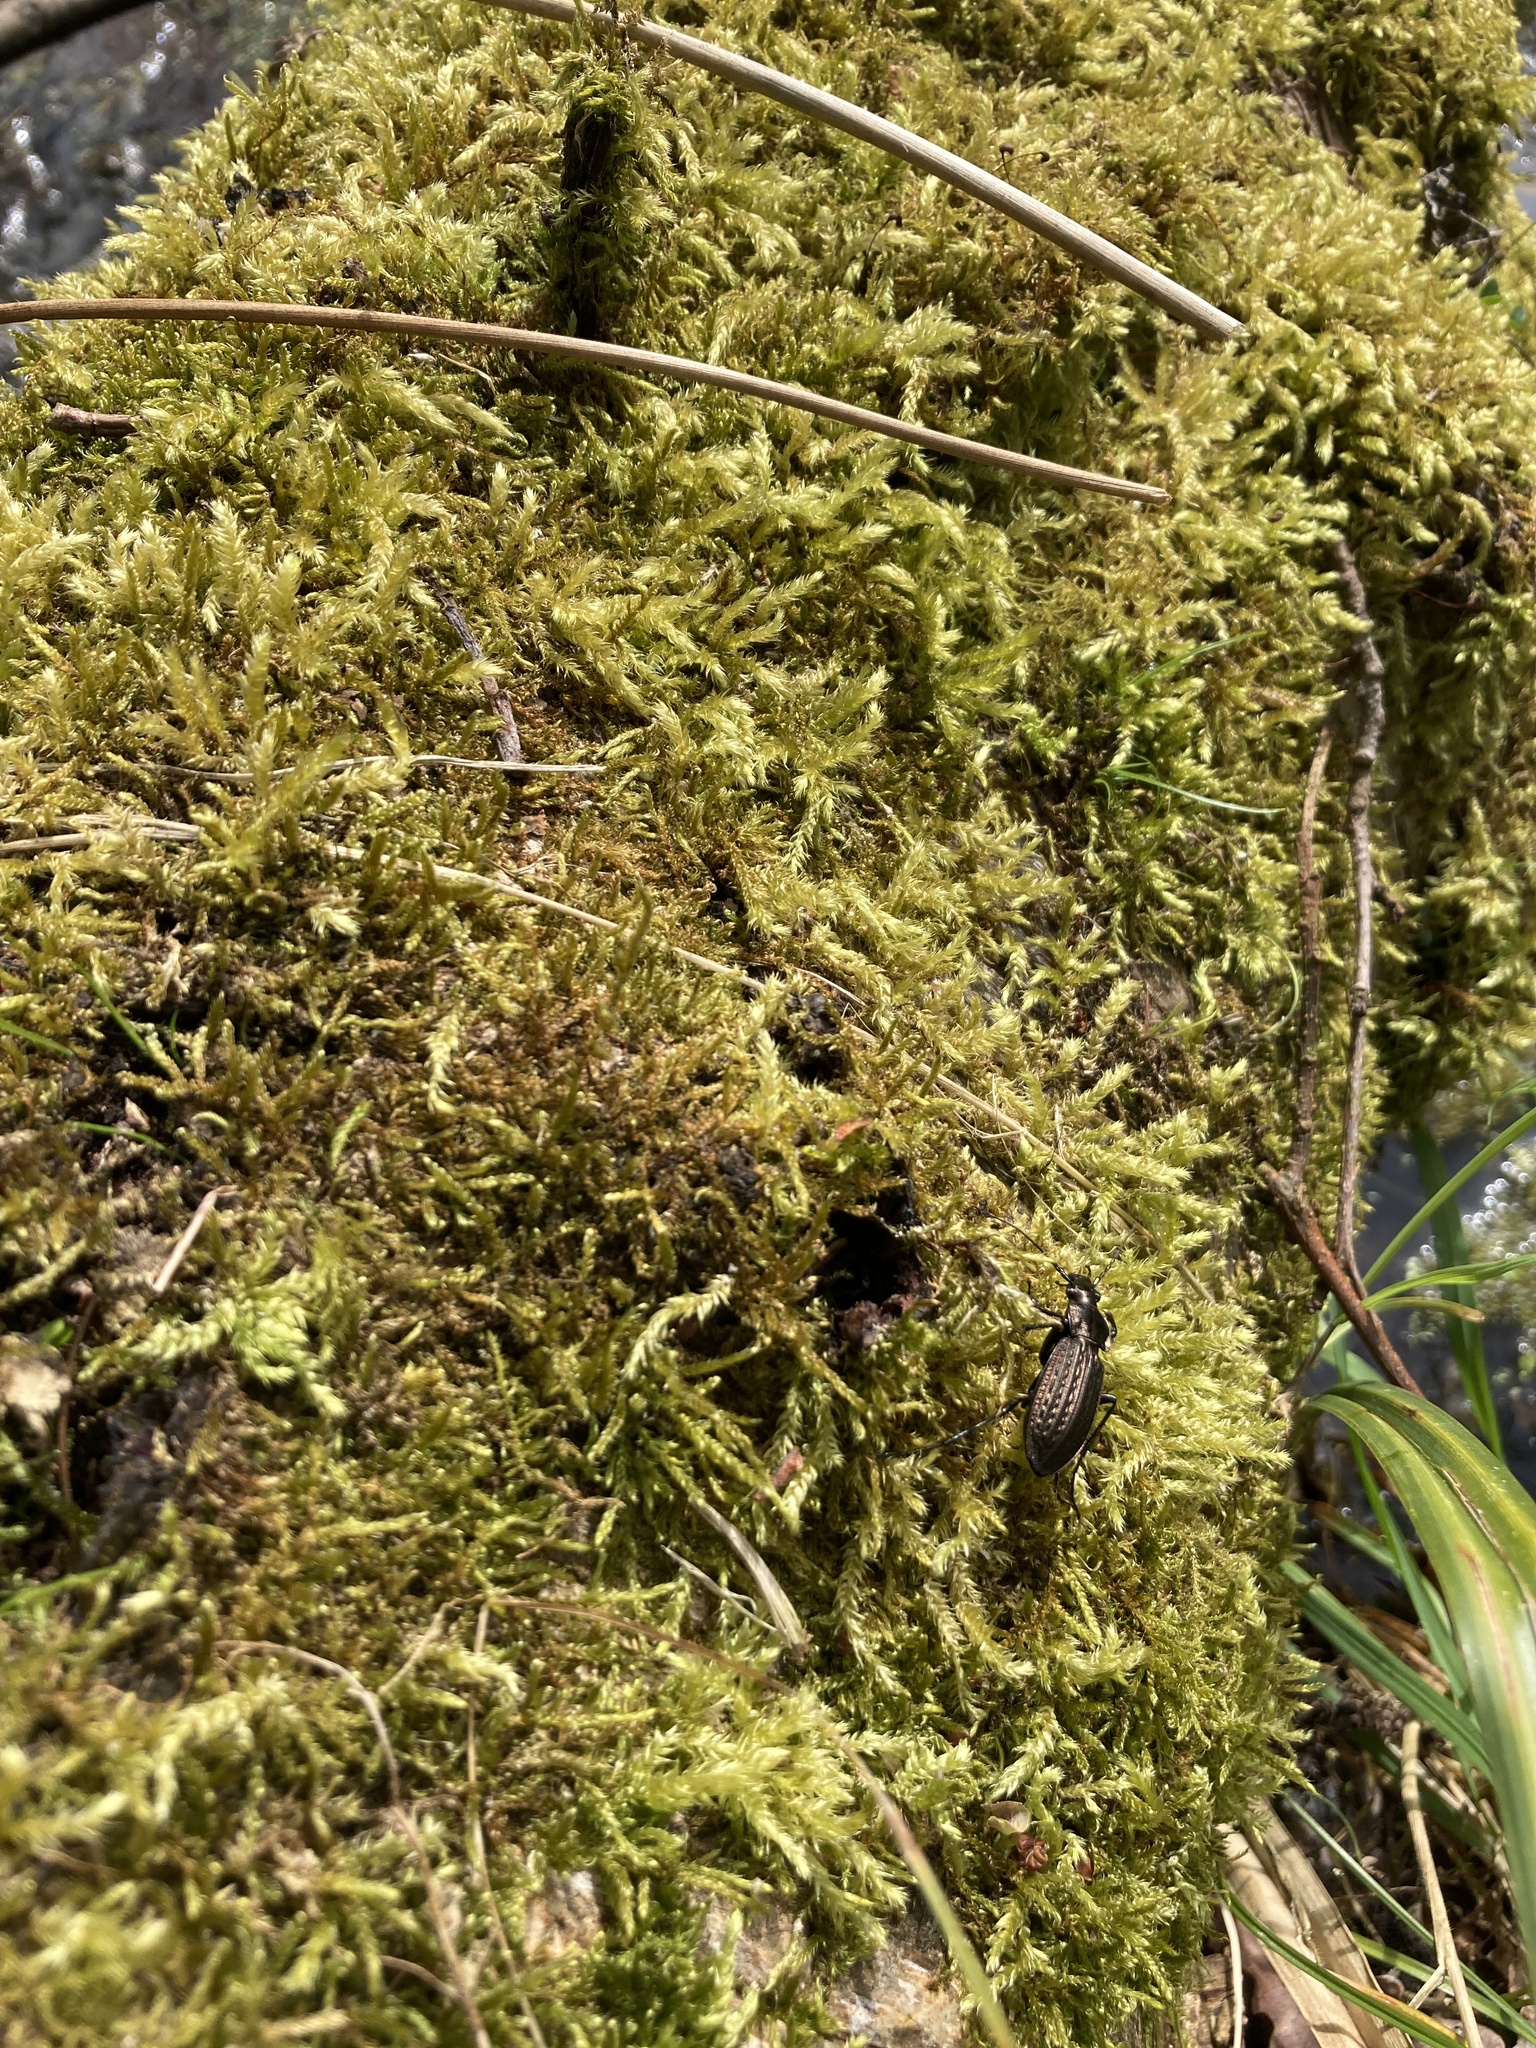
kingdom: Animalia
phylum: Arthropoda
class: Insecta
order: Coleoptera
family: Carabidae
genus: Carabus
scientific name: Carabus granulatus
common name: Granulate ground beetle
